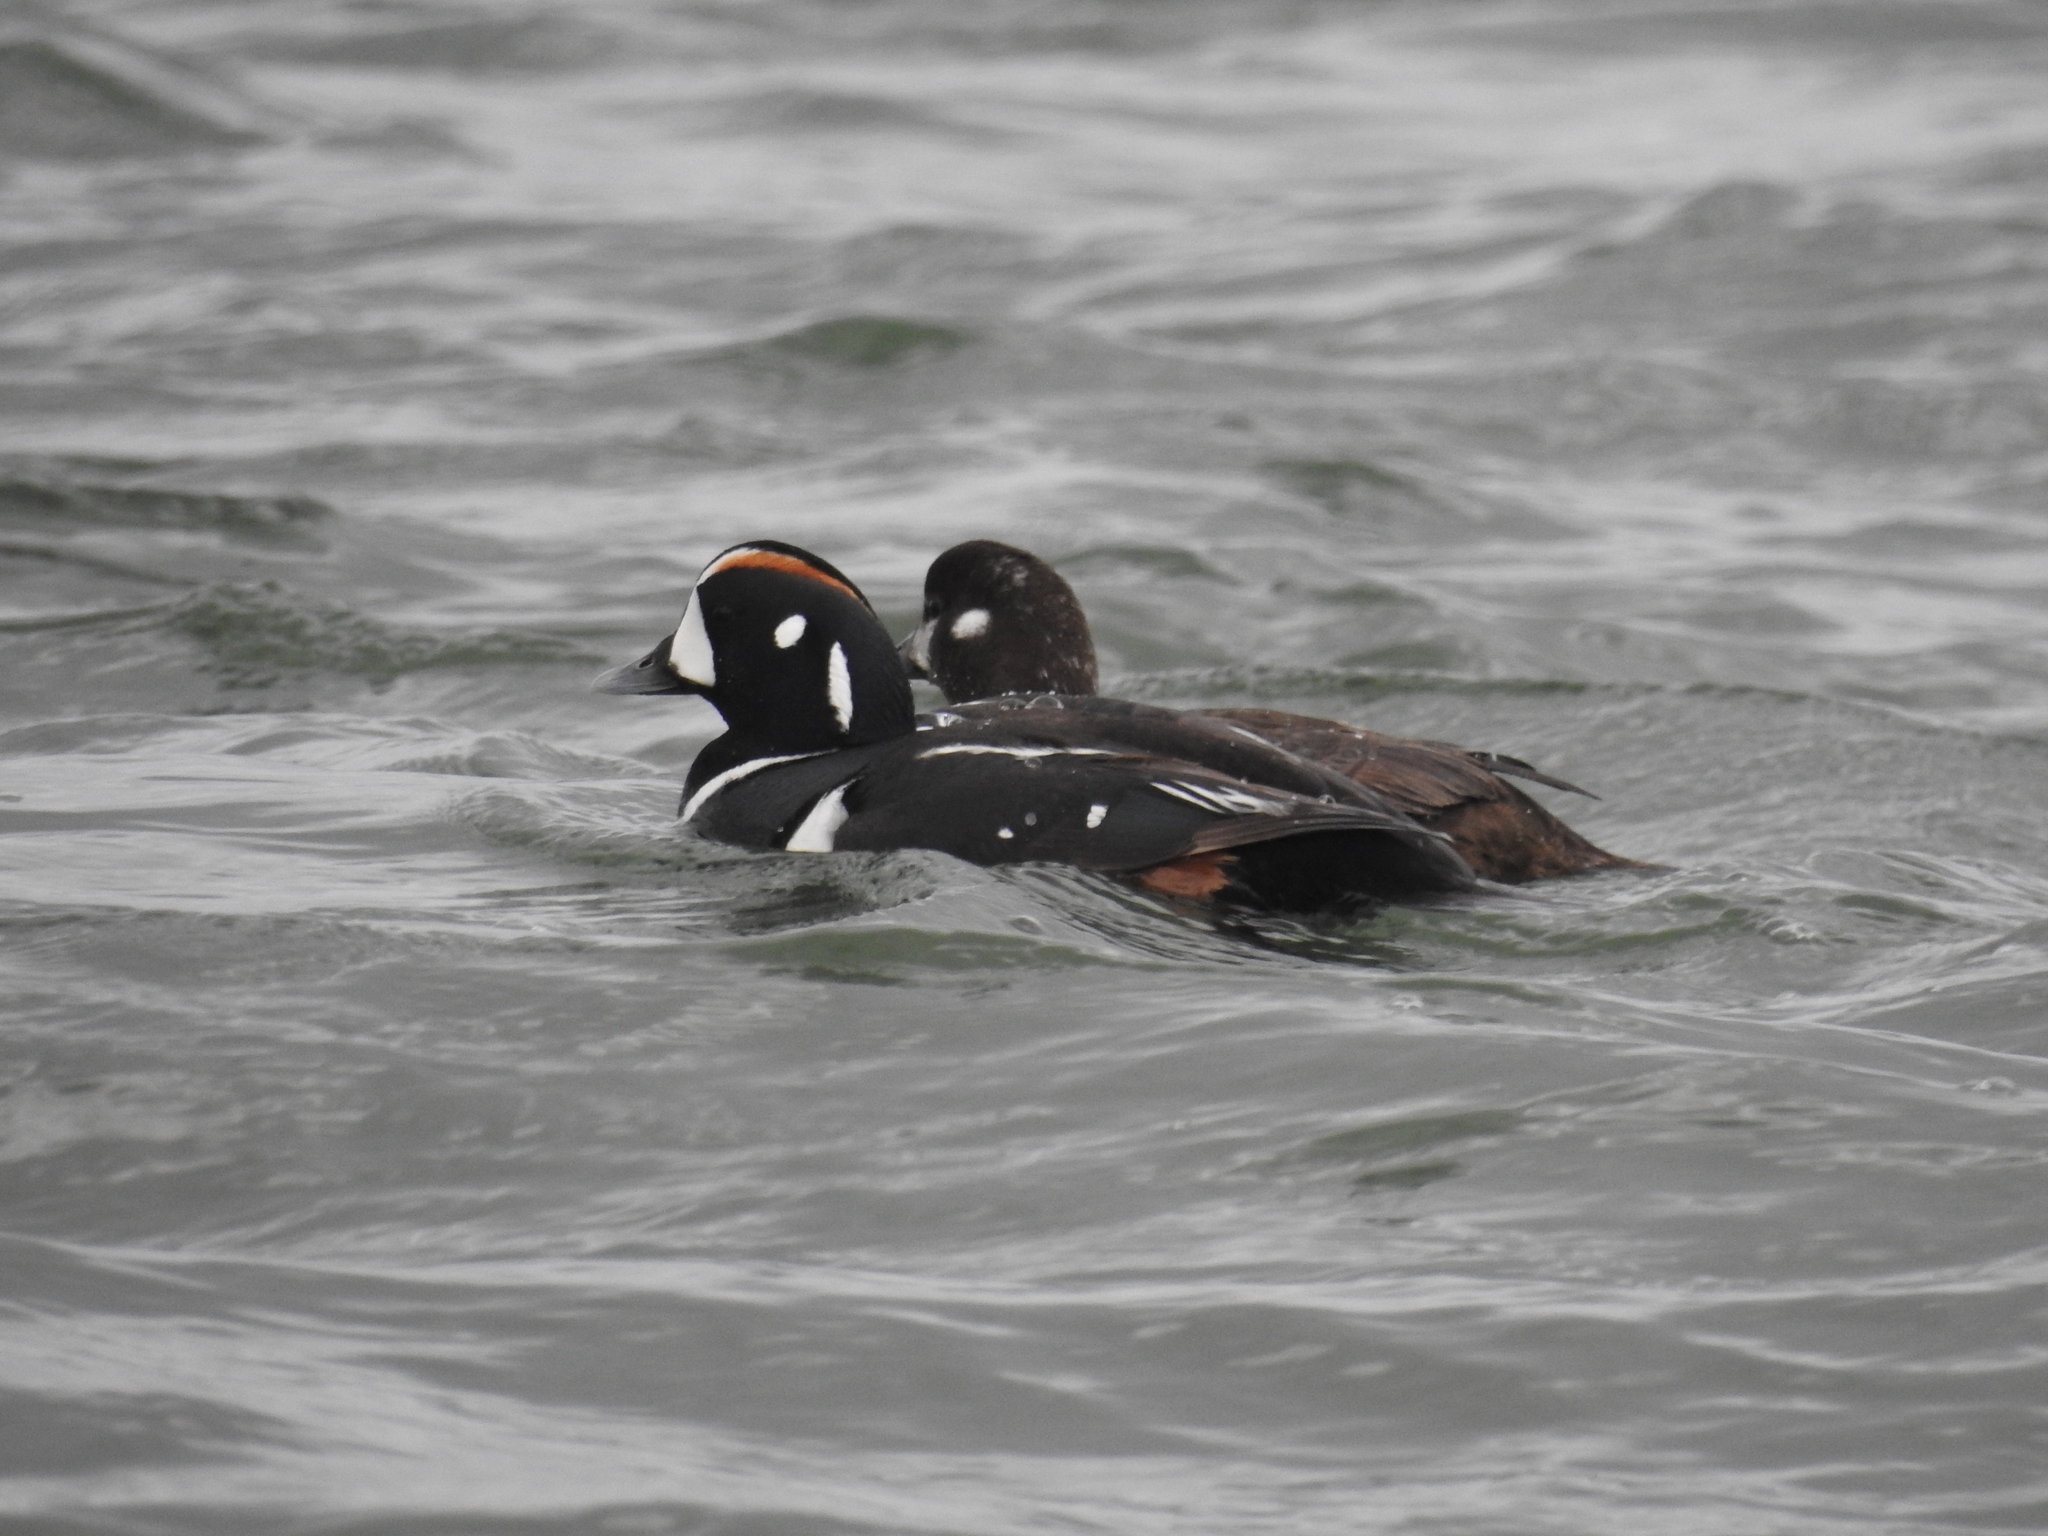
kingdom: Animalia
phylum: Chordata
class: Aves
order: Anseriformes
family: Anatidae
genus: Histrionicus
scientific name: Histrionicus histrionicus
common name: Harlequin duck
